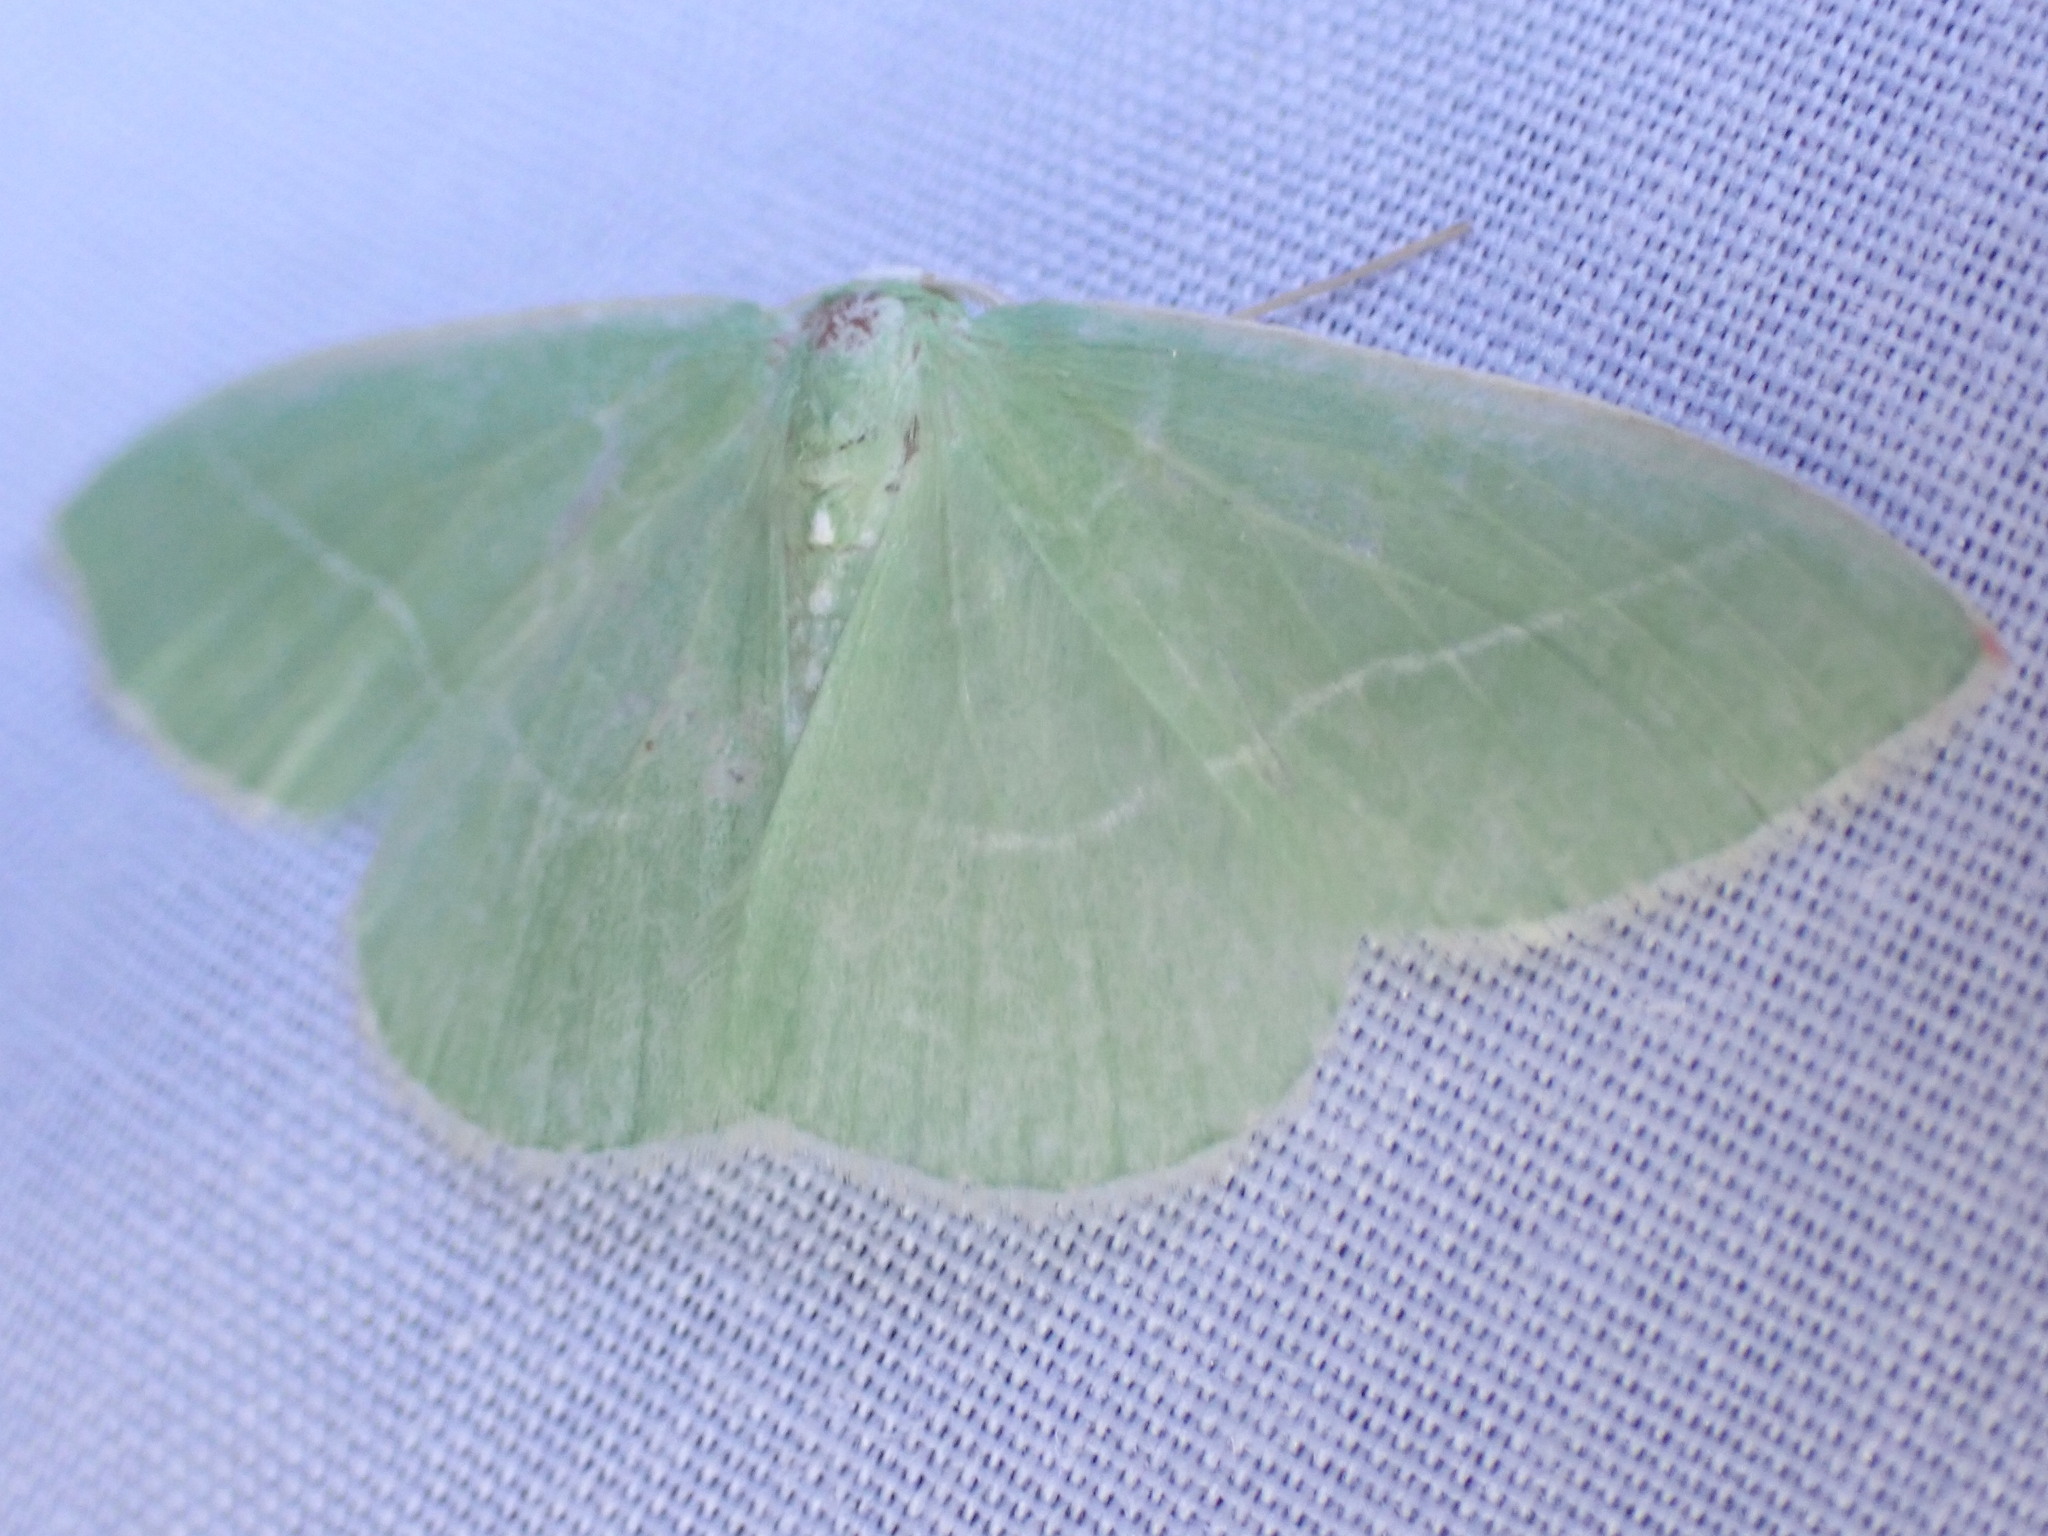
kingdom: Animalia
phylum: Arthropoda
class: Insecta
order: Lepidoptera
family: Geometridae
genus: Nemoria
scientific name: Nemoria unitaria
